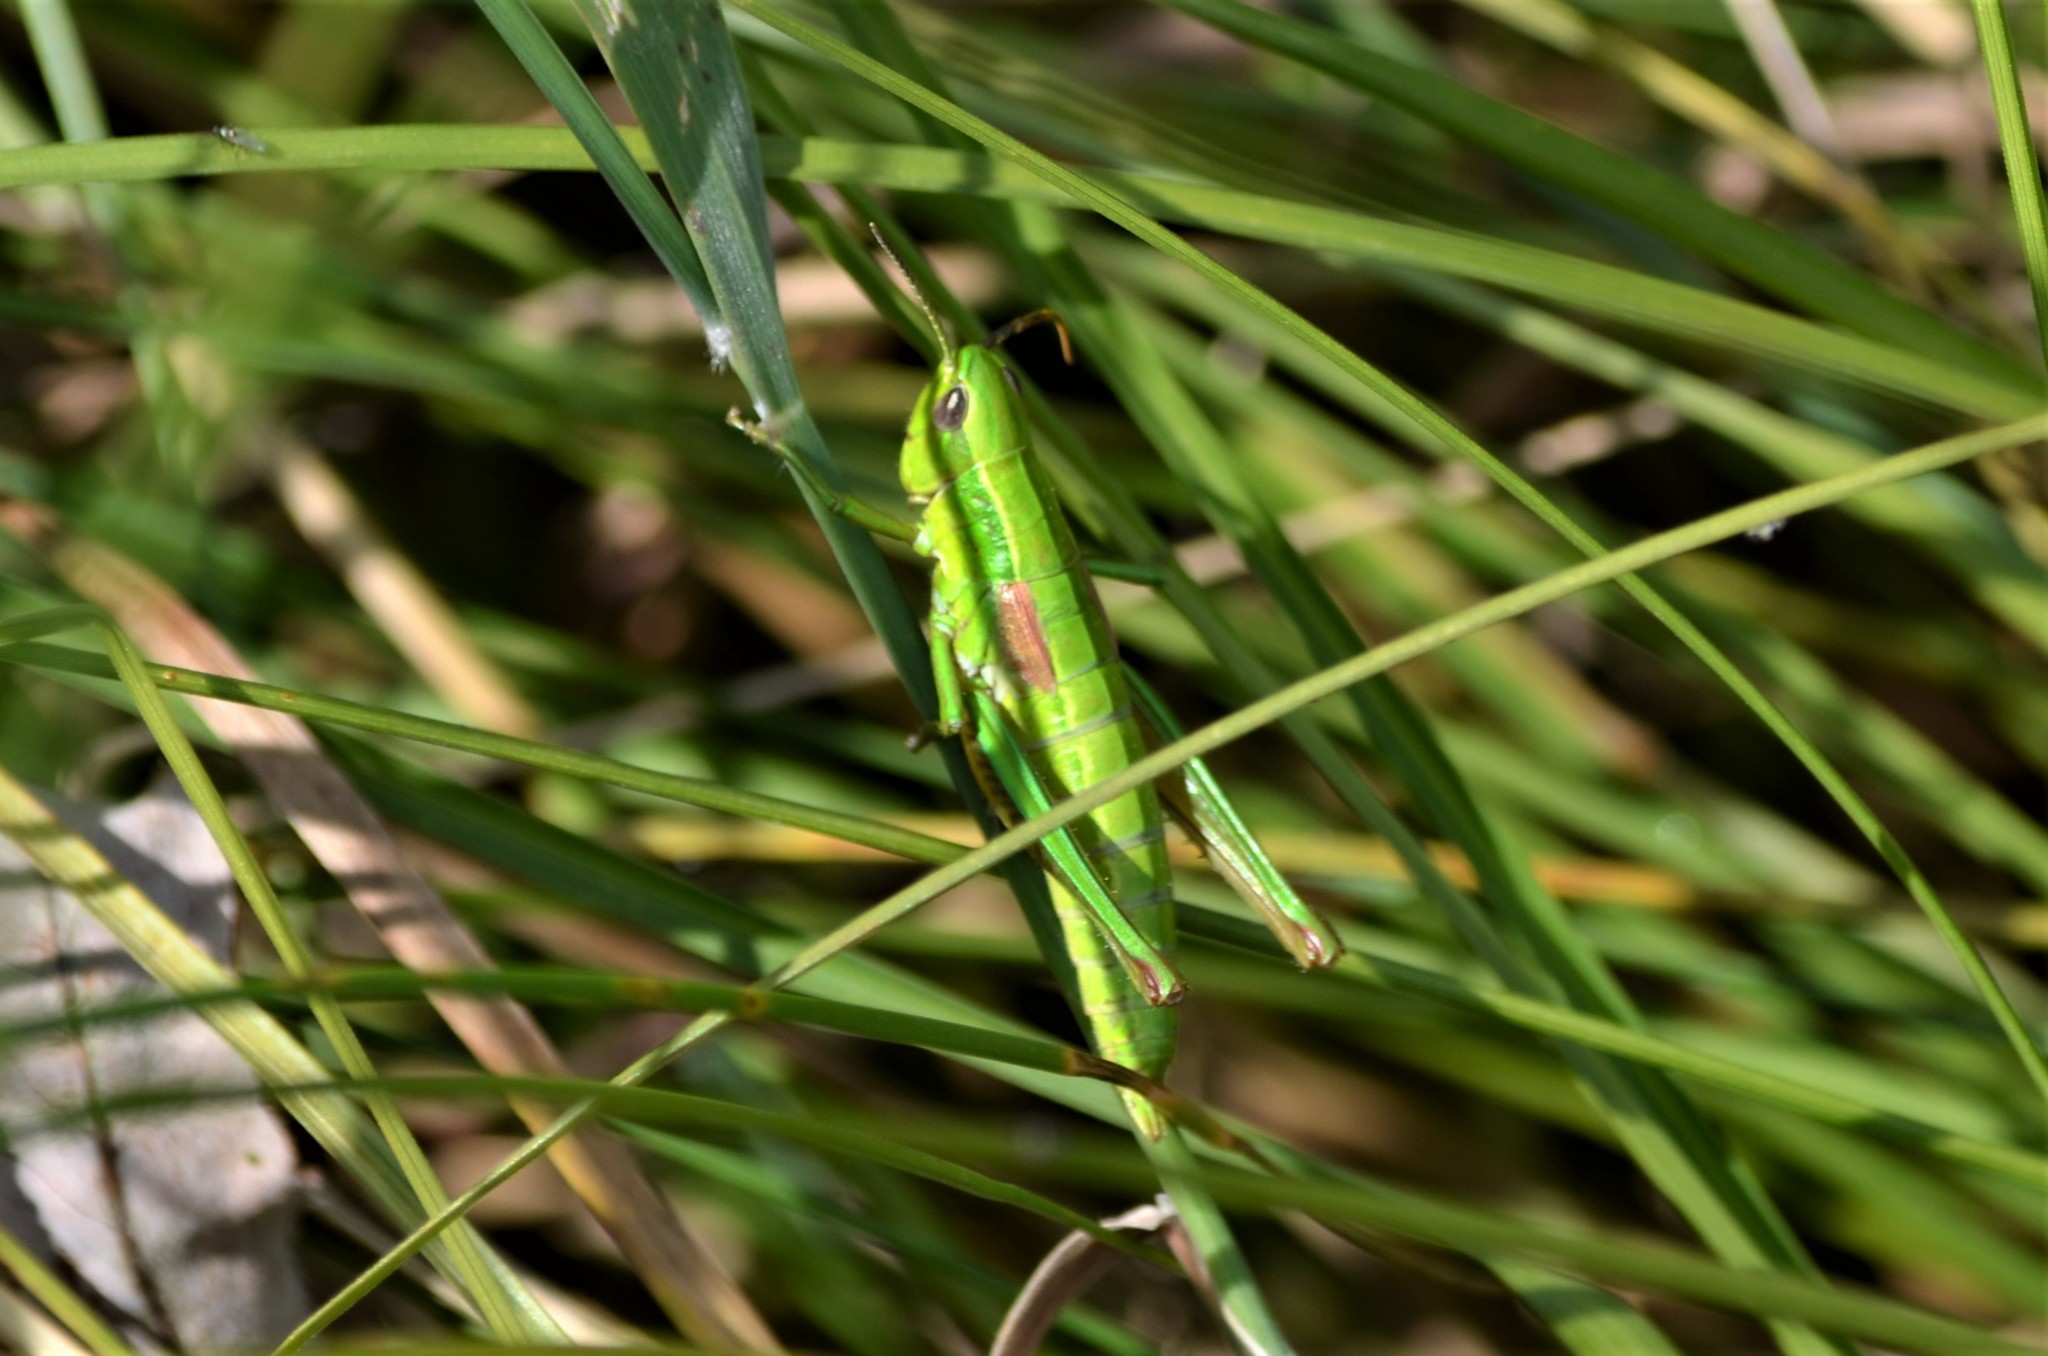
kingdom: Animalia
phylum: Arthropoda
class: Insecta
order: Orthoptera
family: Acrididae
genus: Euthystira
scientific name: Euthystira brachyptera
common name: Small gold grasshopper
